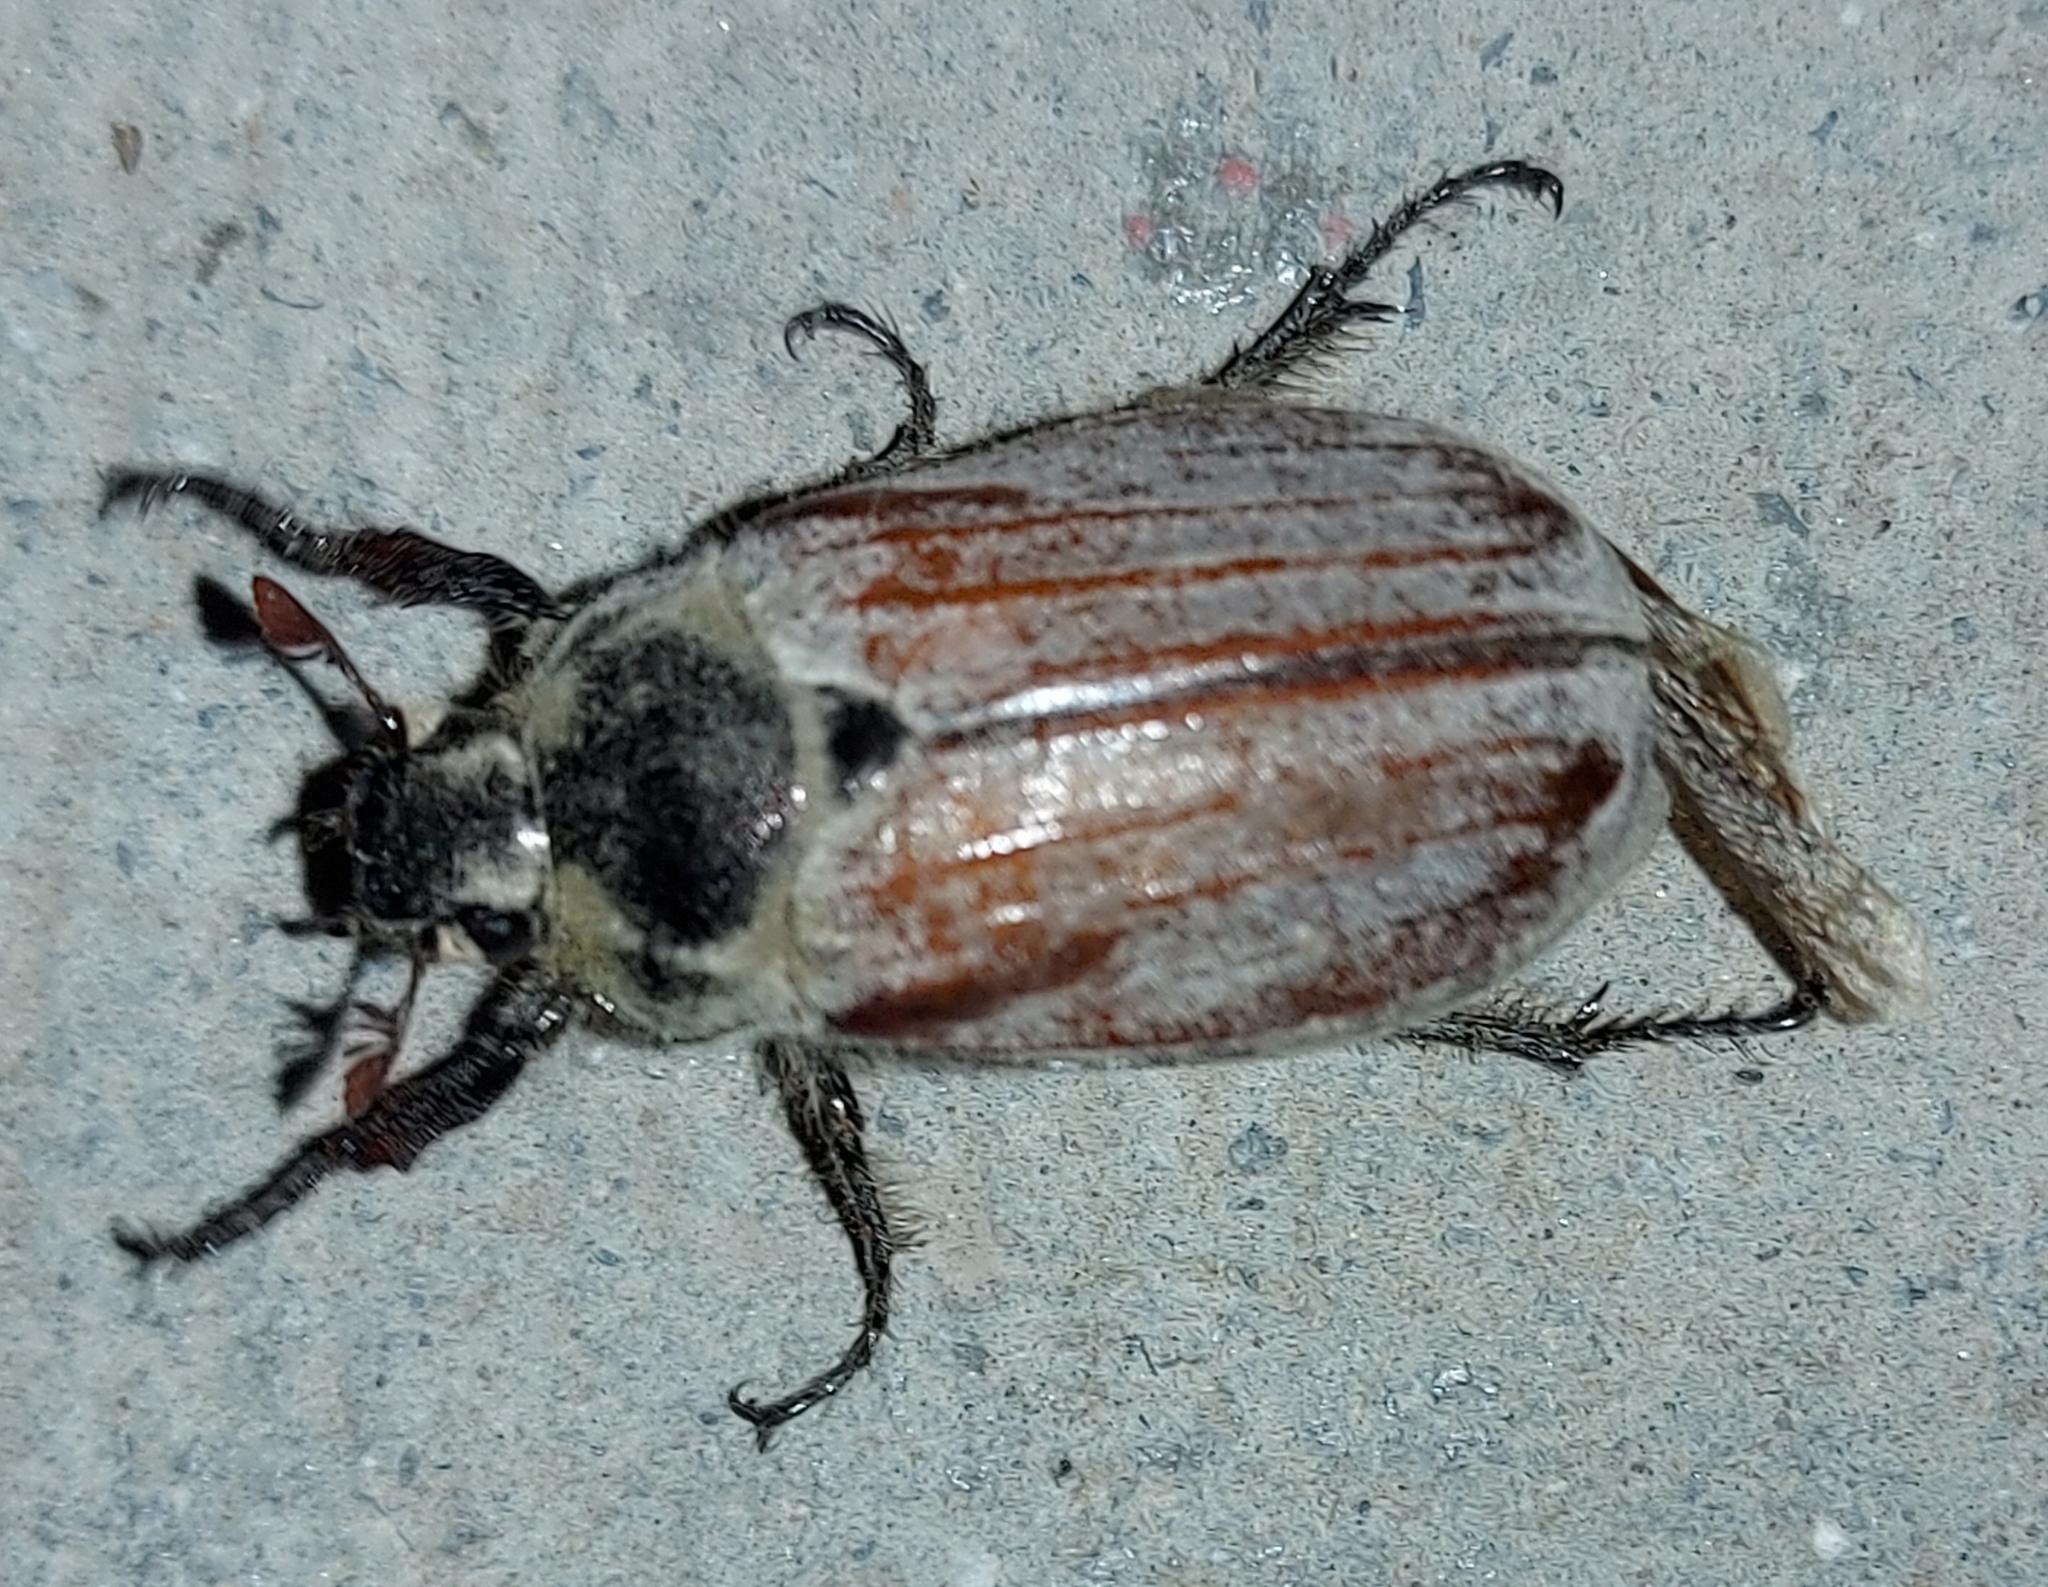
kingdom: Animalia
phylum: Arthropoda
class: Insecta
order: Coleoptera
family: Scarabaeidae
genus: Melolontha
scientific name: Melolontha hippocastani
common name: Chestnut cockchafer
